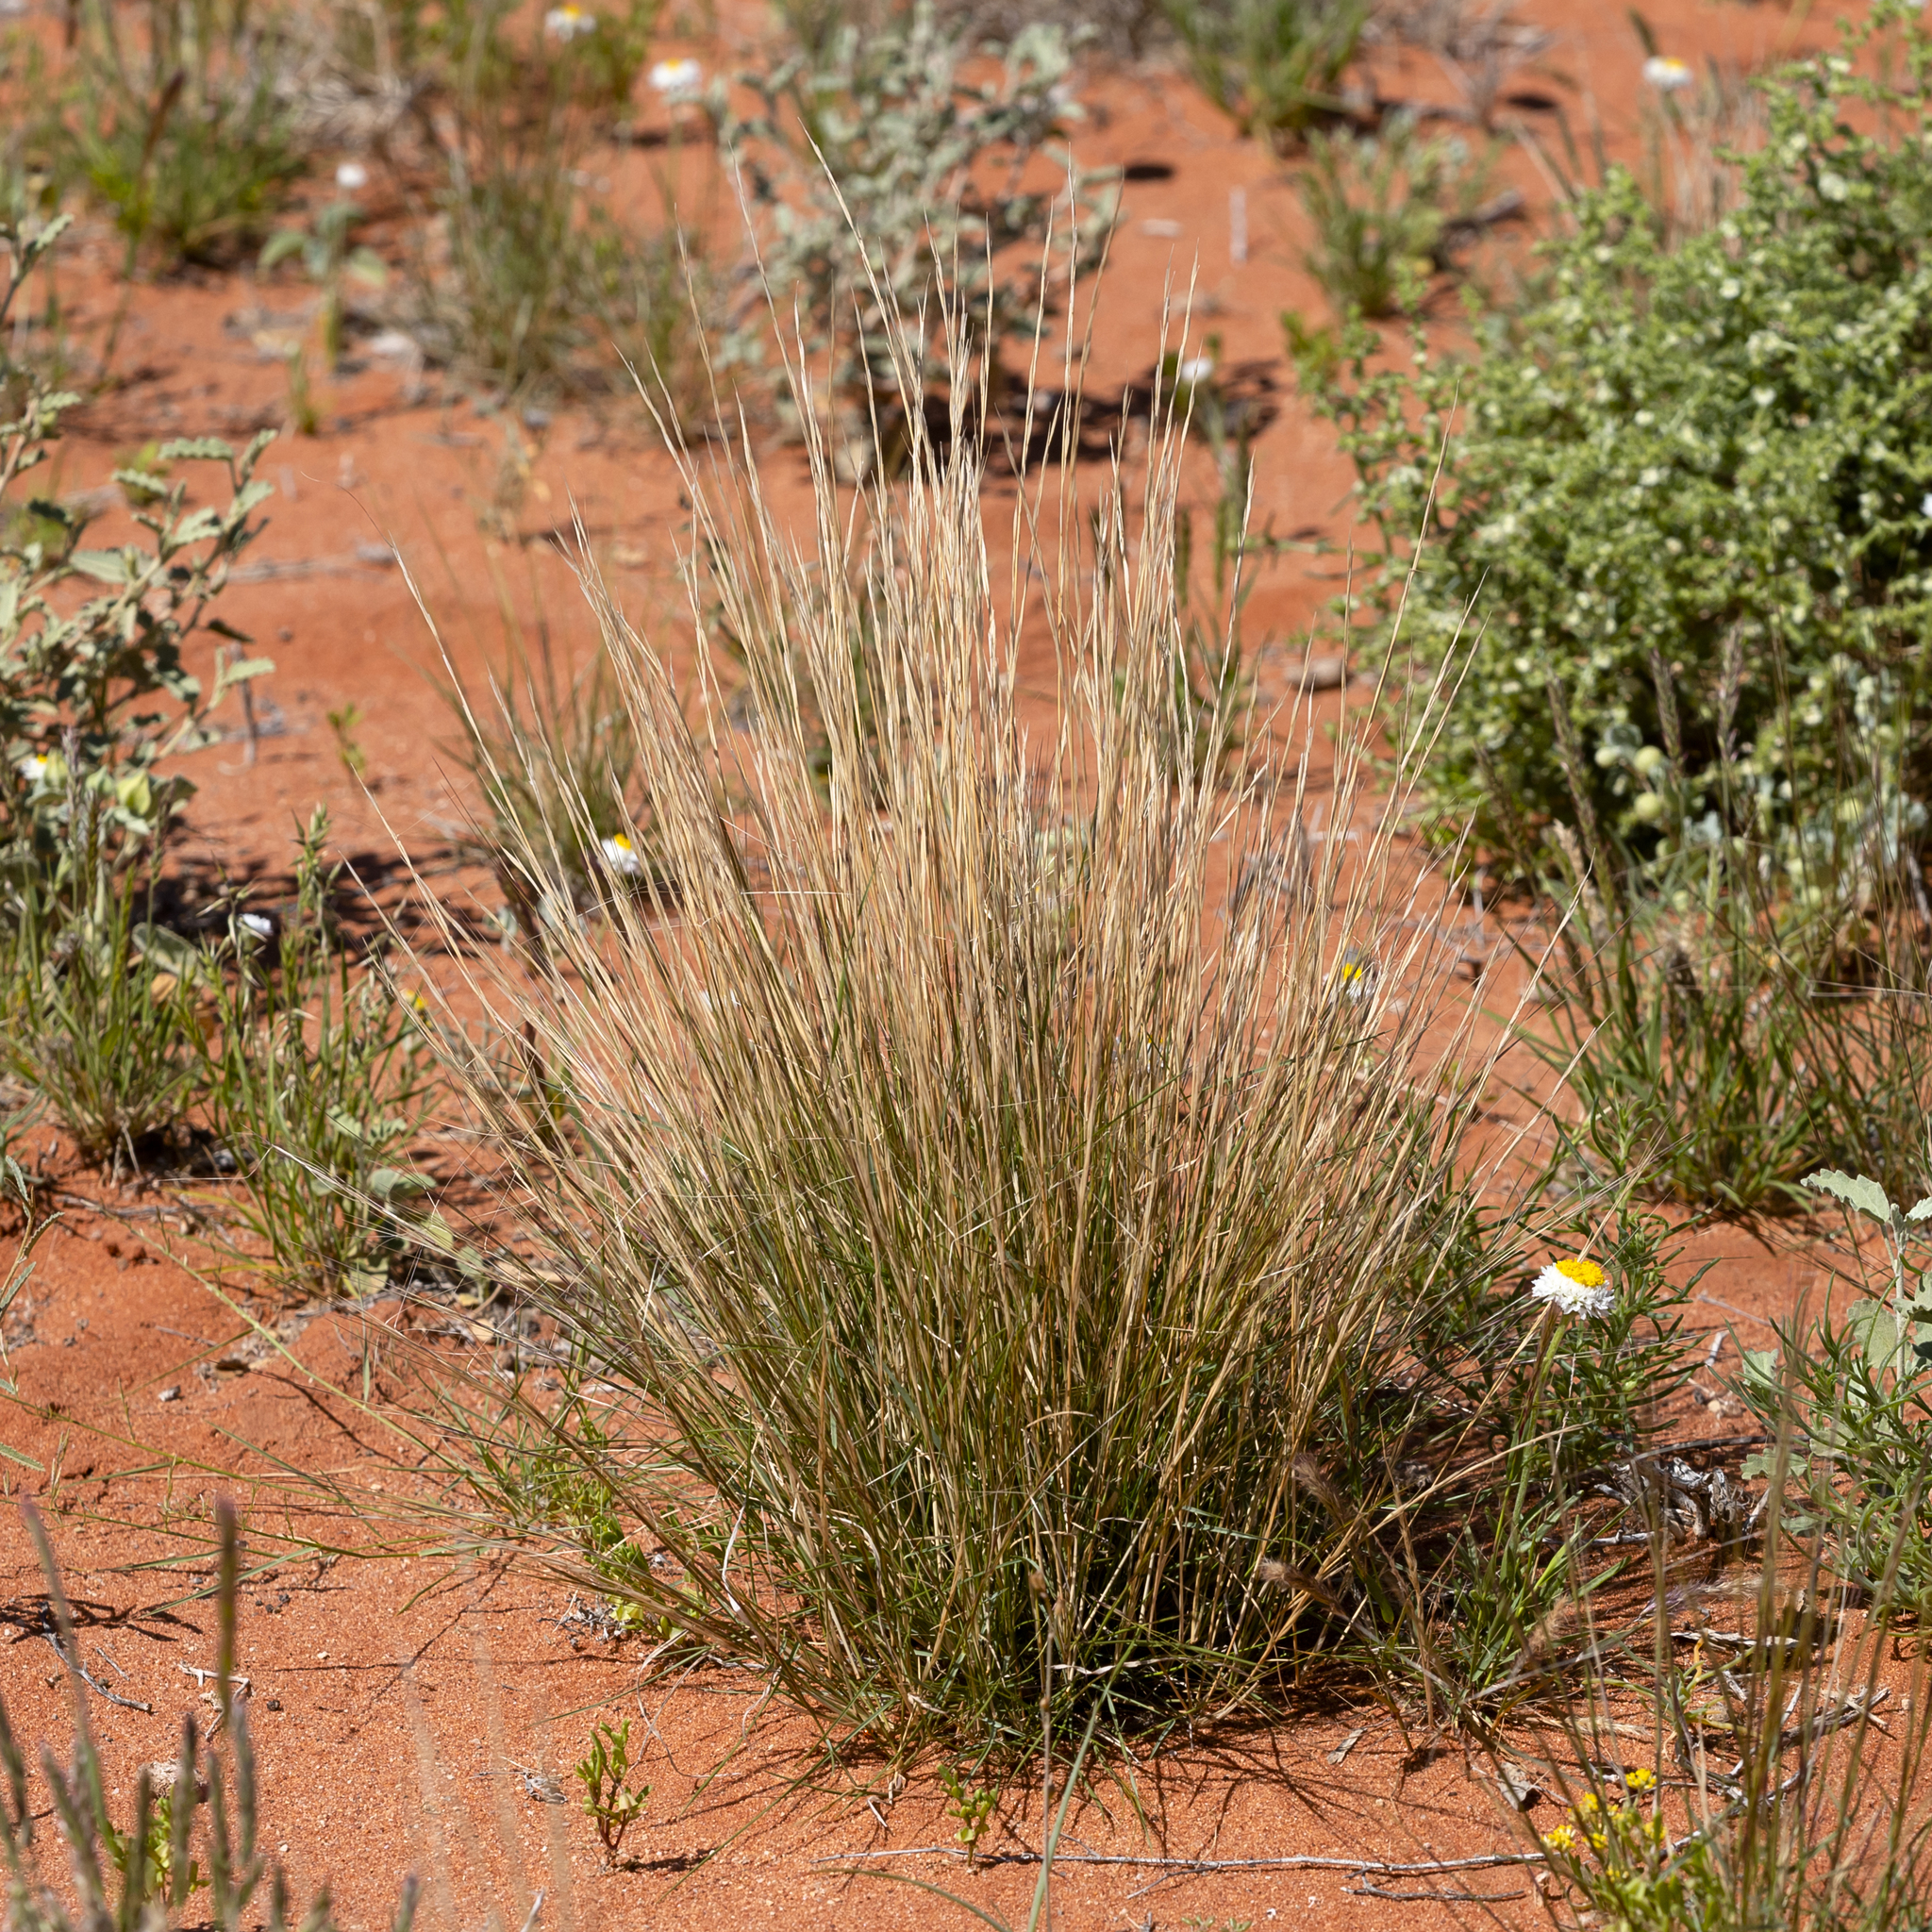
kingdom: Plantae
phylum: Tracheophyta
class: Liliopsida
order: Poales
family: Poaceae
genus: Aristida
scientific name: Aristida holathera
